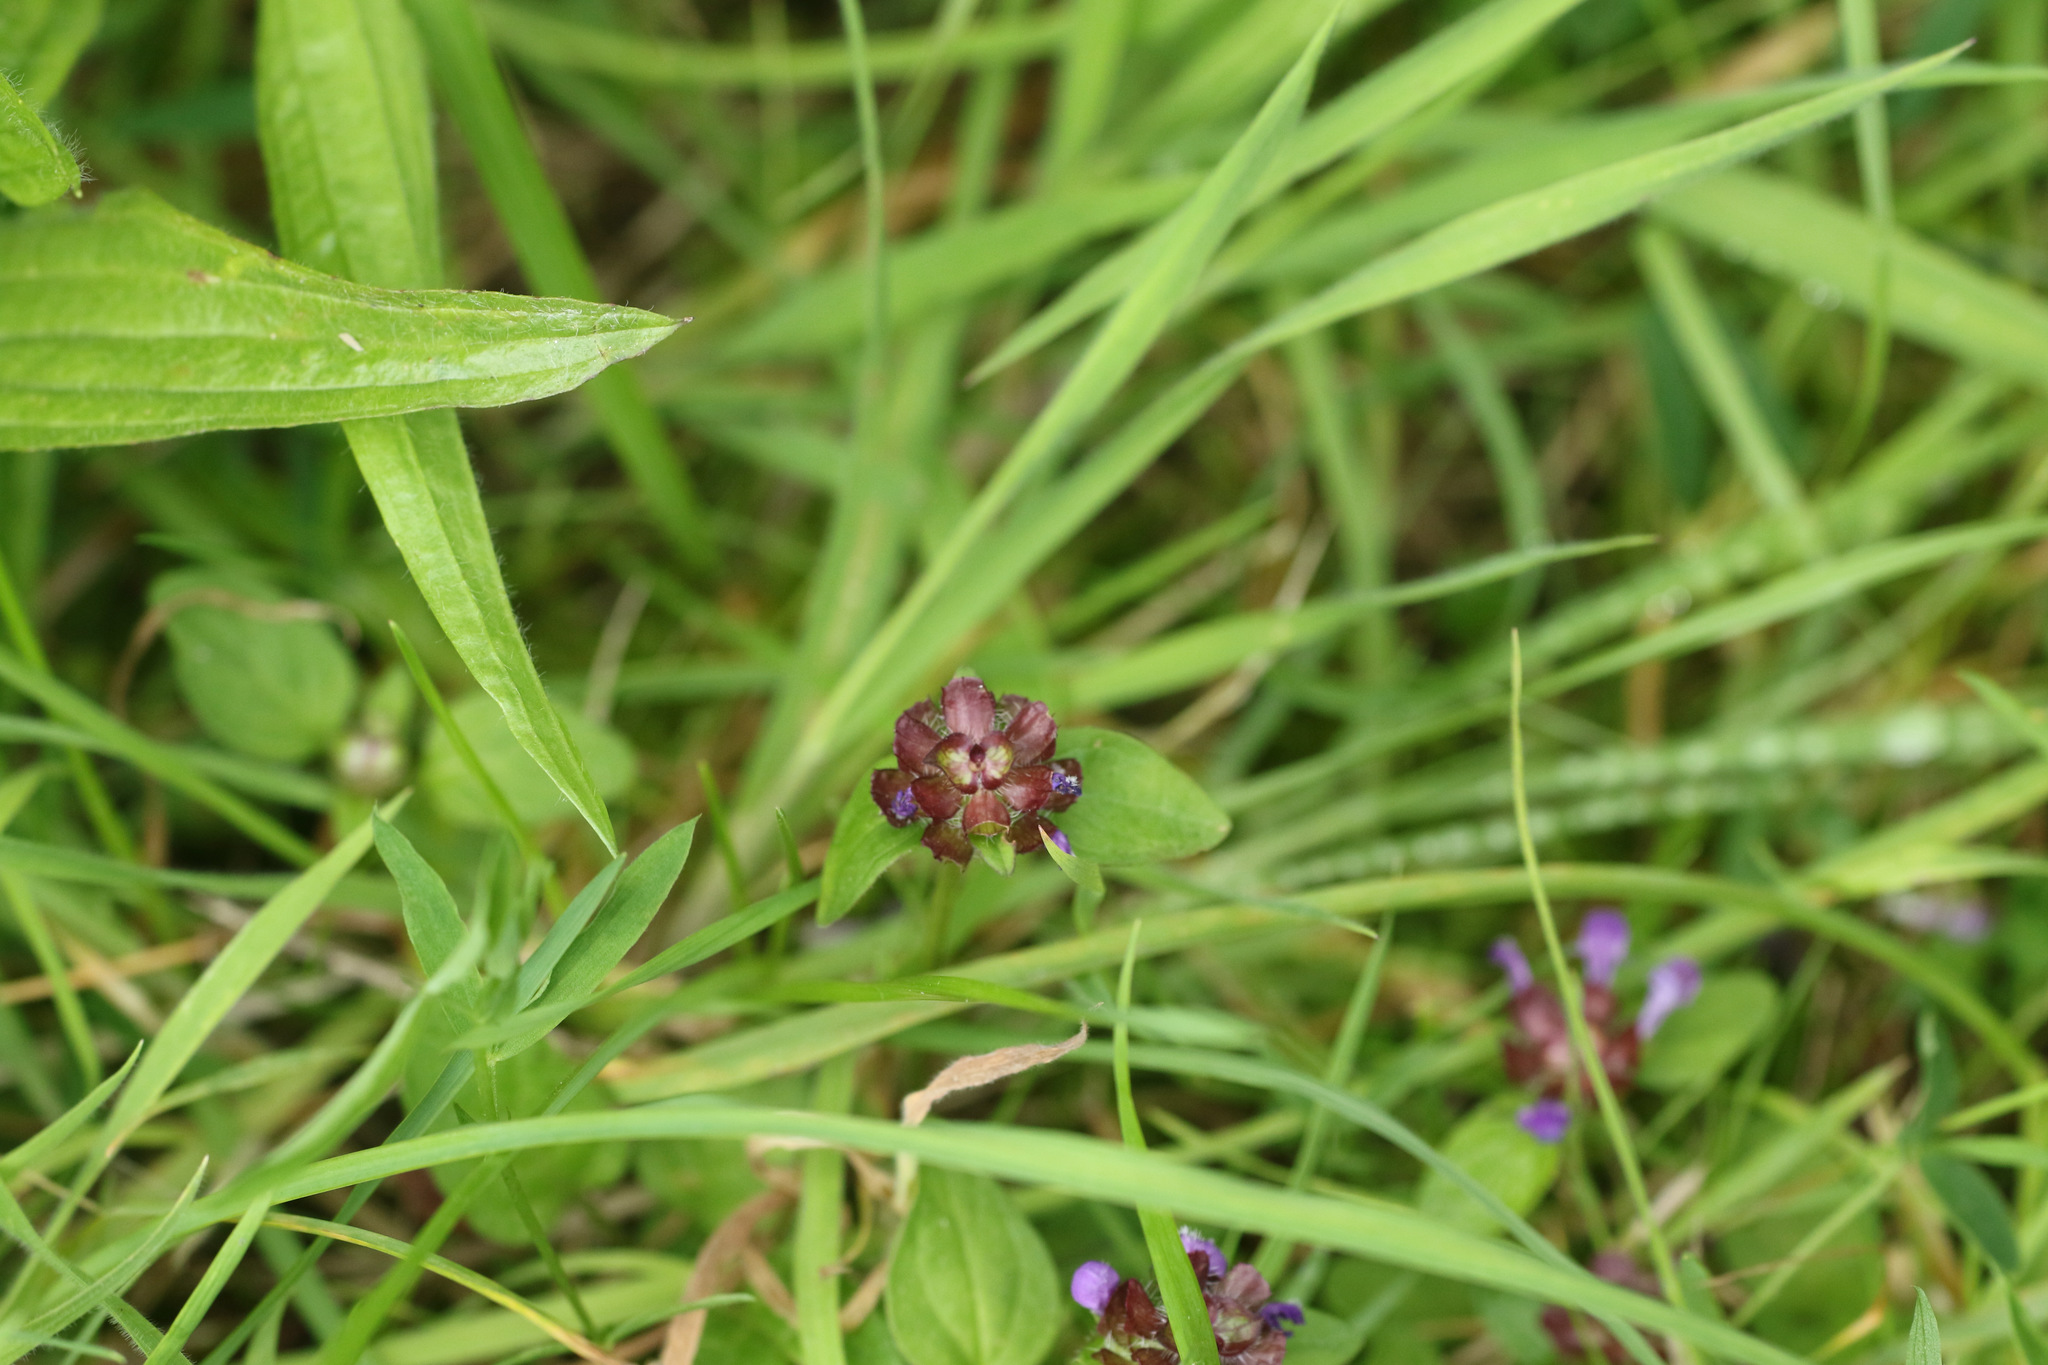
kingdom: Plantae
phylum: Tracheophyta
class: Magnoliopsida
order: Lamiales
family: Lamiaceae
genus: Prunella
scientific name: Prunella vulgaris
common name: Heal-all
